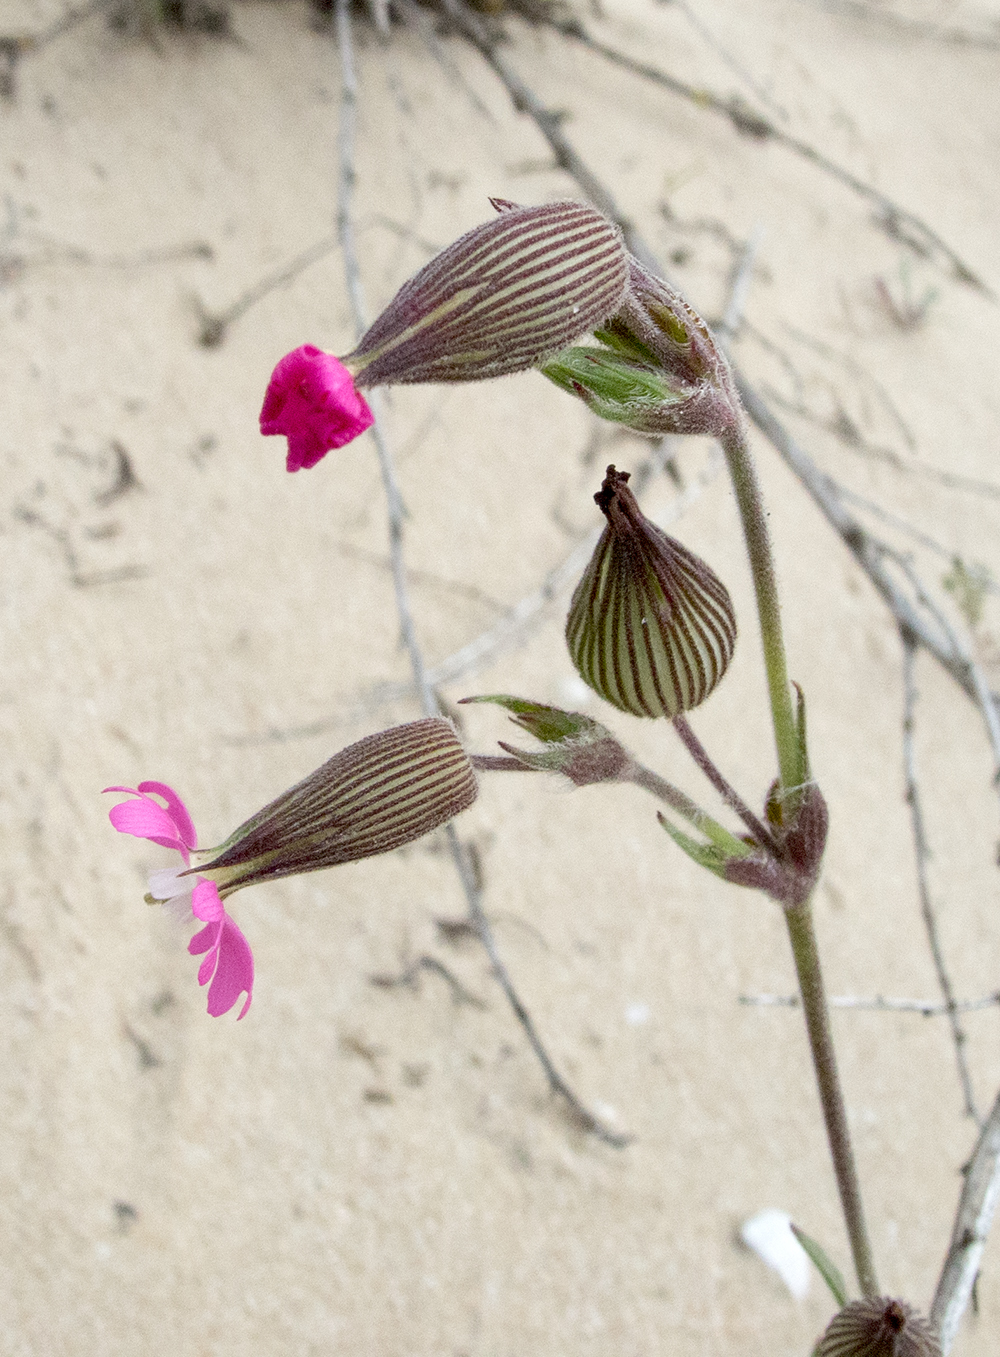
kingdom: Plantae
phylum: Tracheophyta
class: Magnoliopsida
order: Caryophyllales
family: Caryophyllaceae
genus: Silene
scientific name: Silene conica
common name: Sand catchfly
